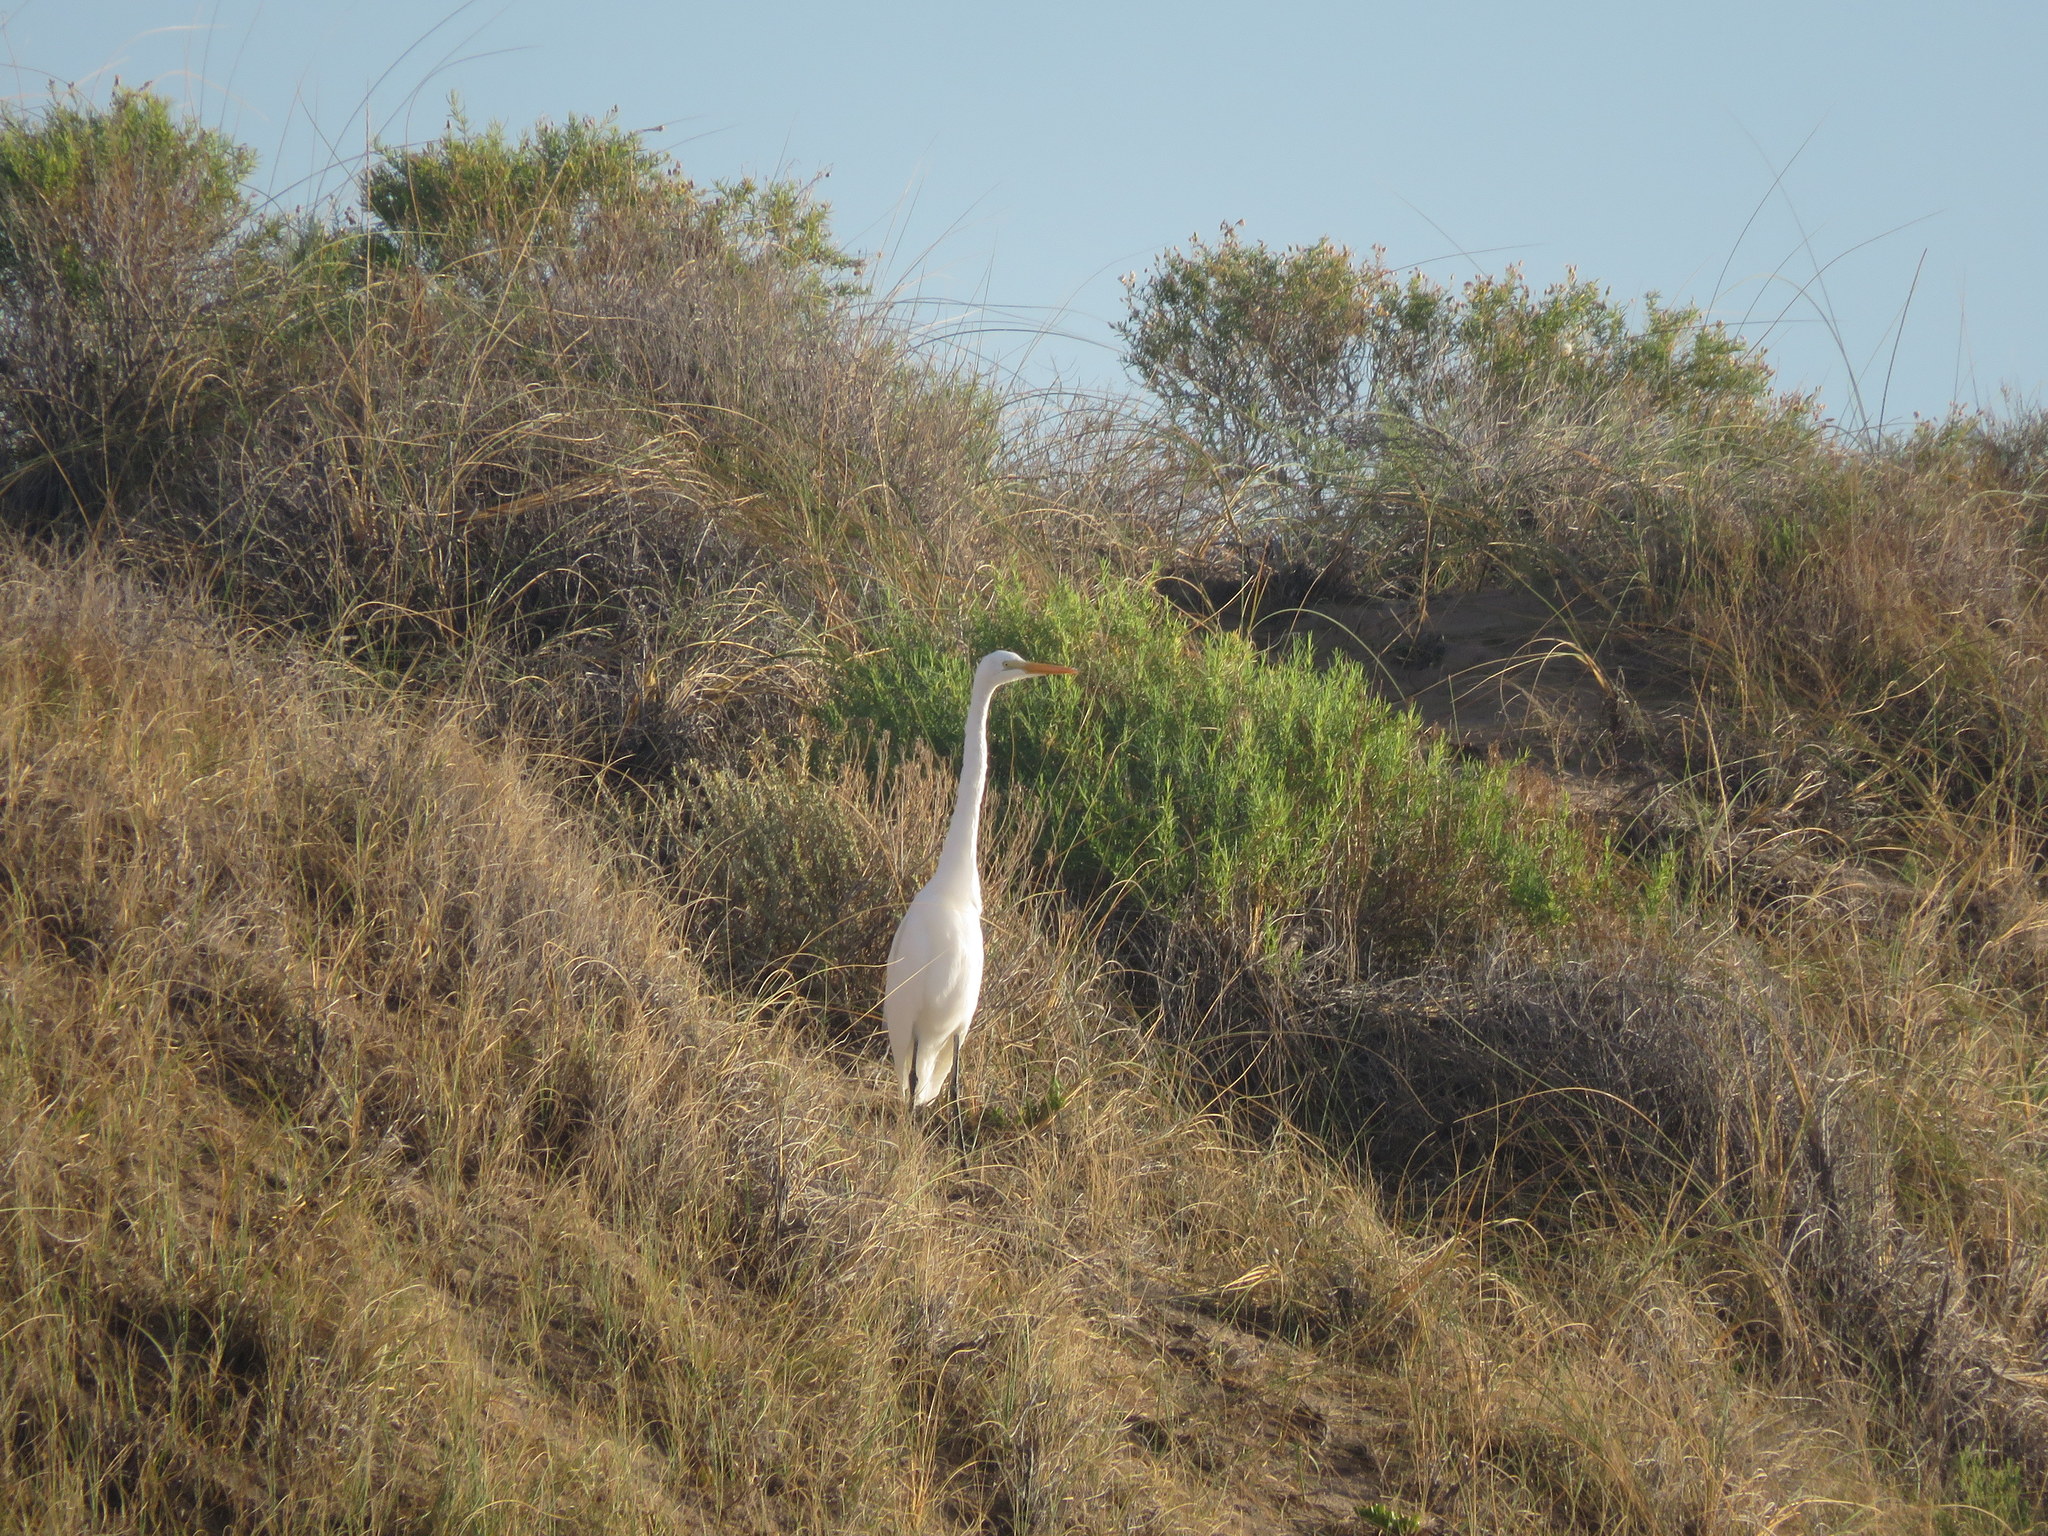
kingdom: Animalia
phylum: Chordata
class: Aves
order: Pelecaniformes
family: Ardeidae
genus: Ardea
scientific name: Ardea alba
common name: Great egret
